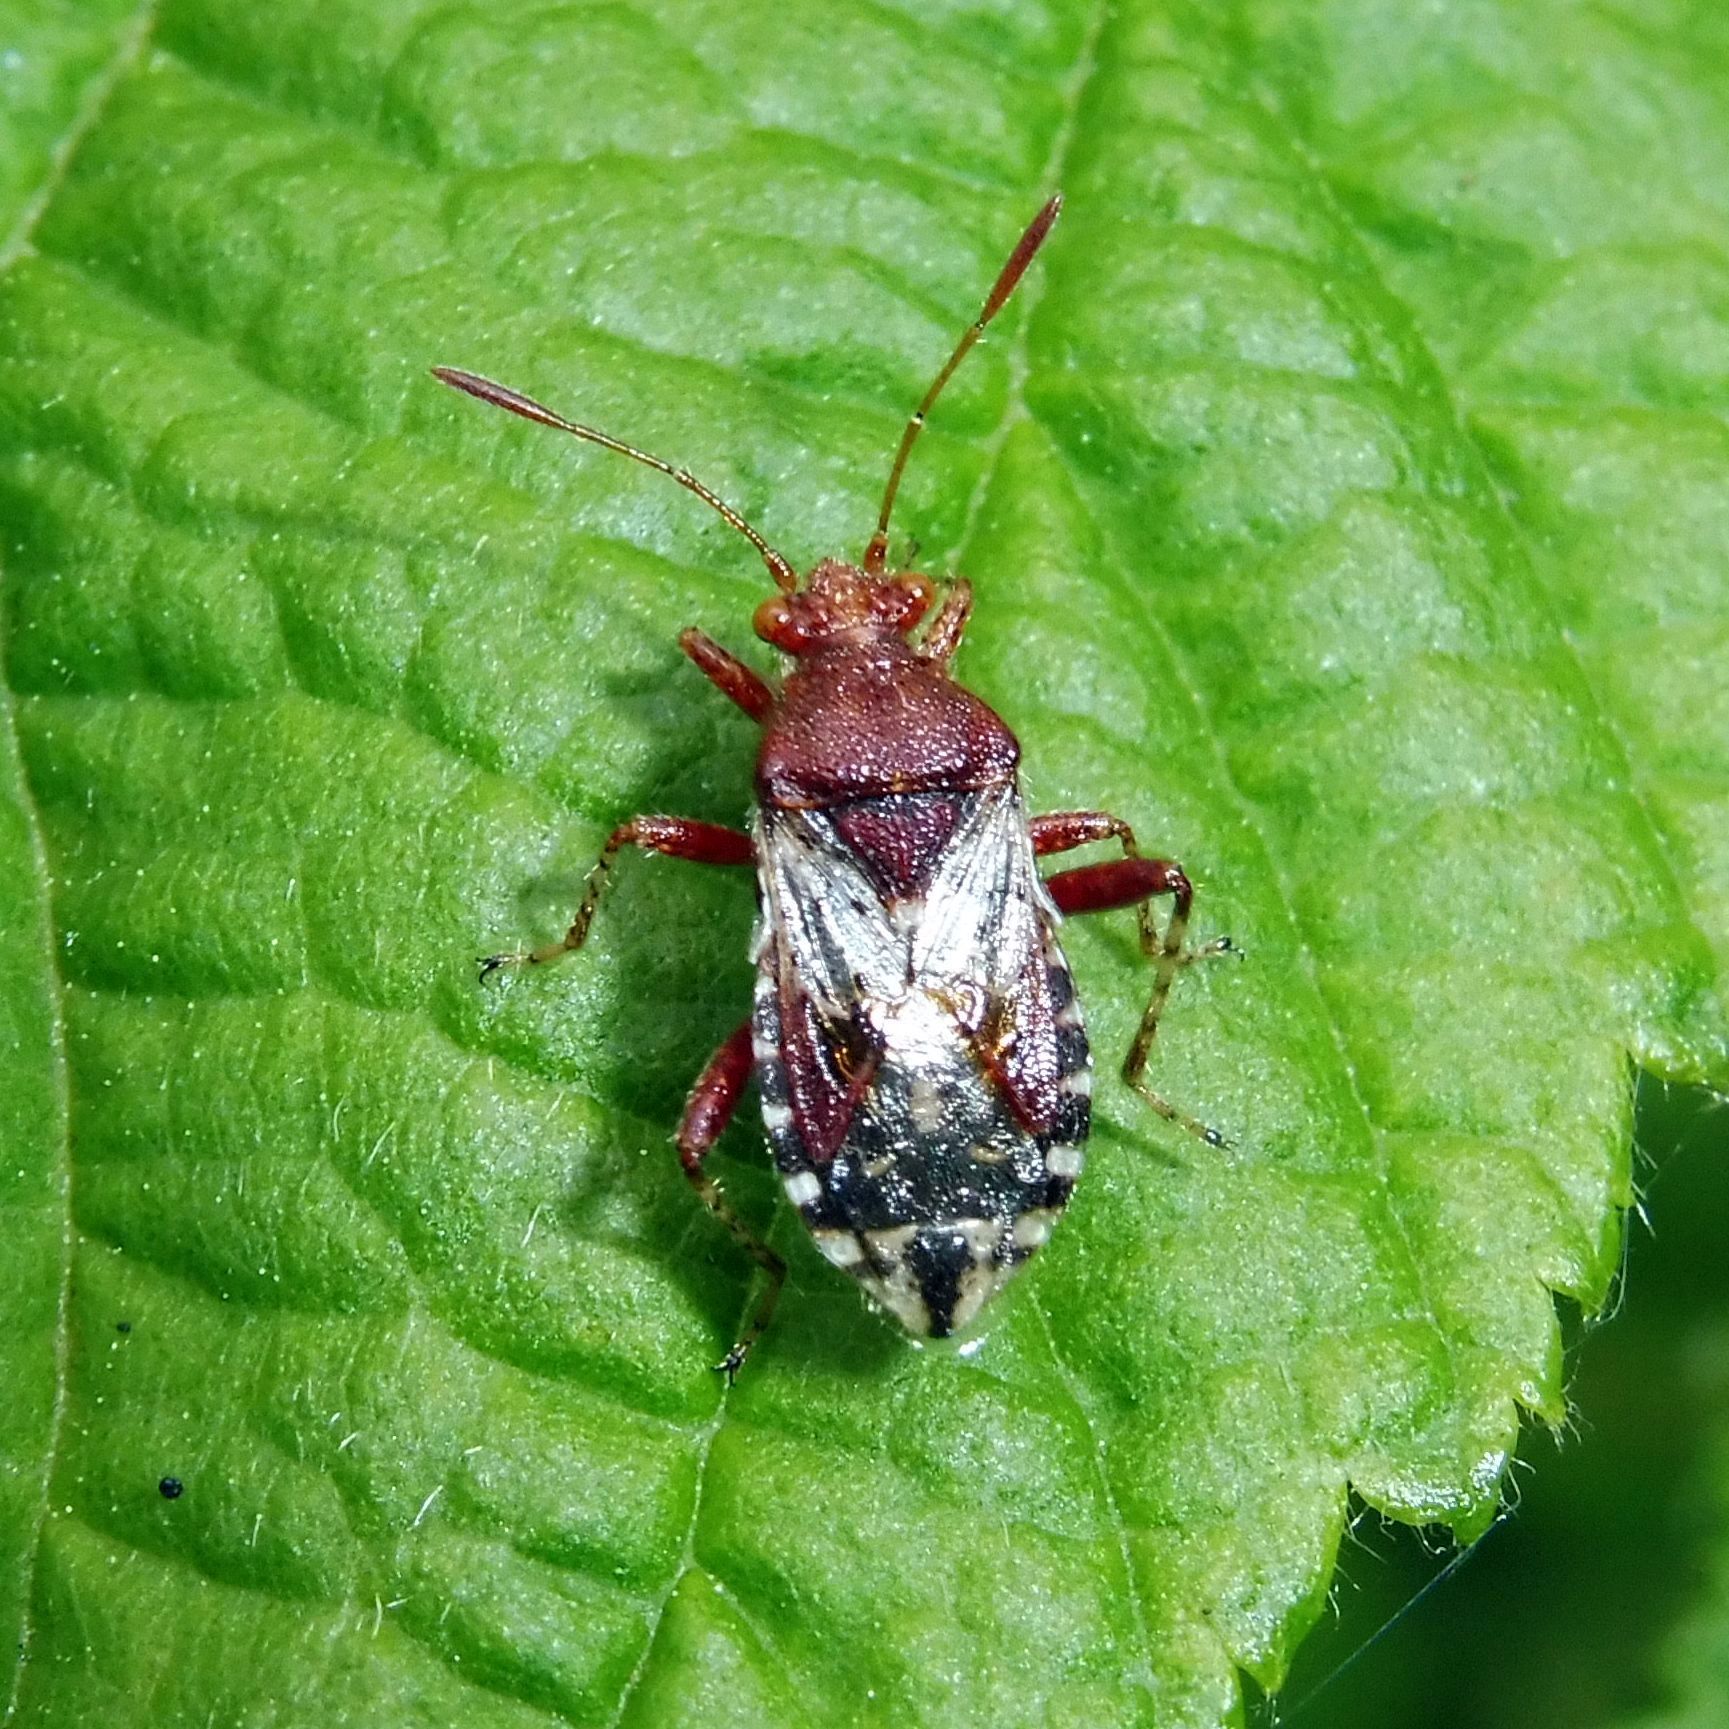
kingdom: Animalia
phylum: Arthropoda
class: Insecta
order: Hemiptera
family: Rhopalidae
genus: Rhopalus
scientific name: Rhopalus subrufus
